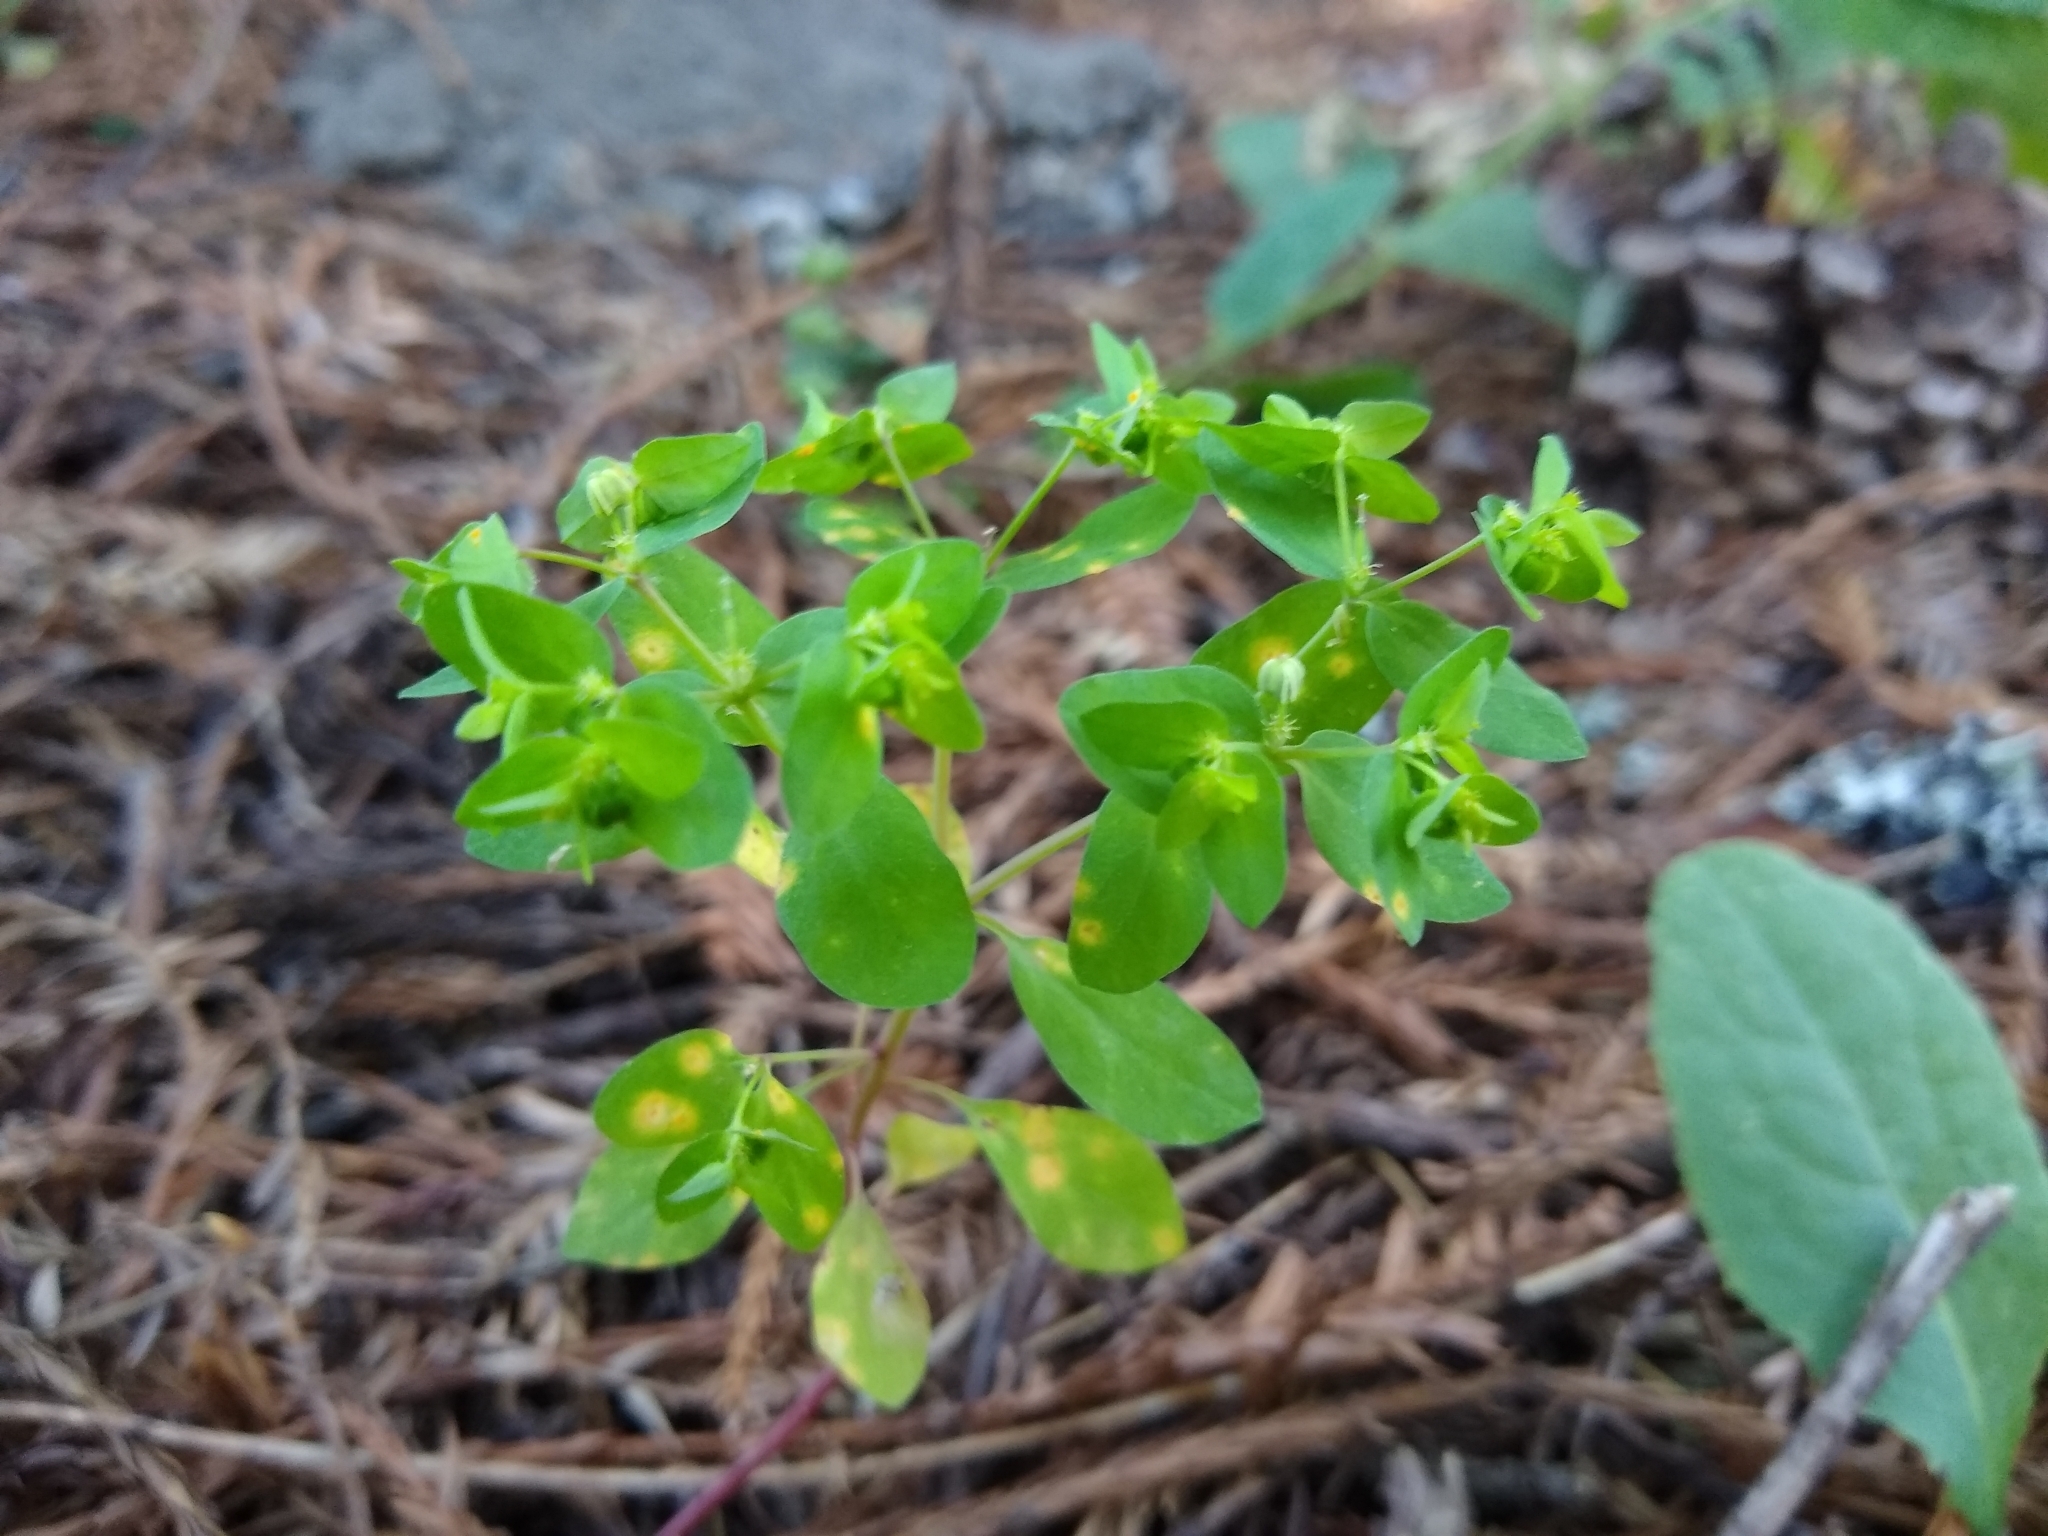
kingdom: Plantae
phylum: Tracheophyta
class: Magnoliopsida
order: Malpighiales
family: Euphorbiaceae
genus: Euphorbia
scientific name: Euphorbia peplus
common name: Petty spurge
